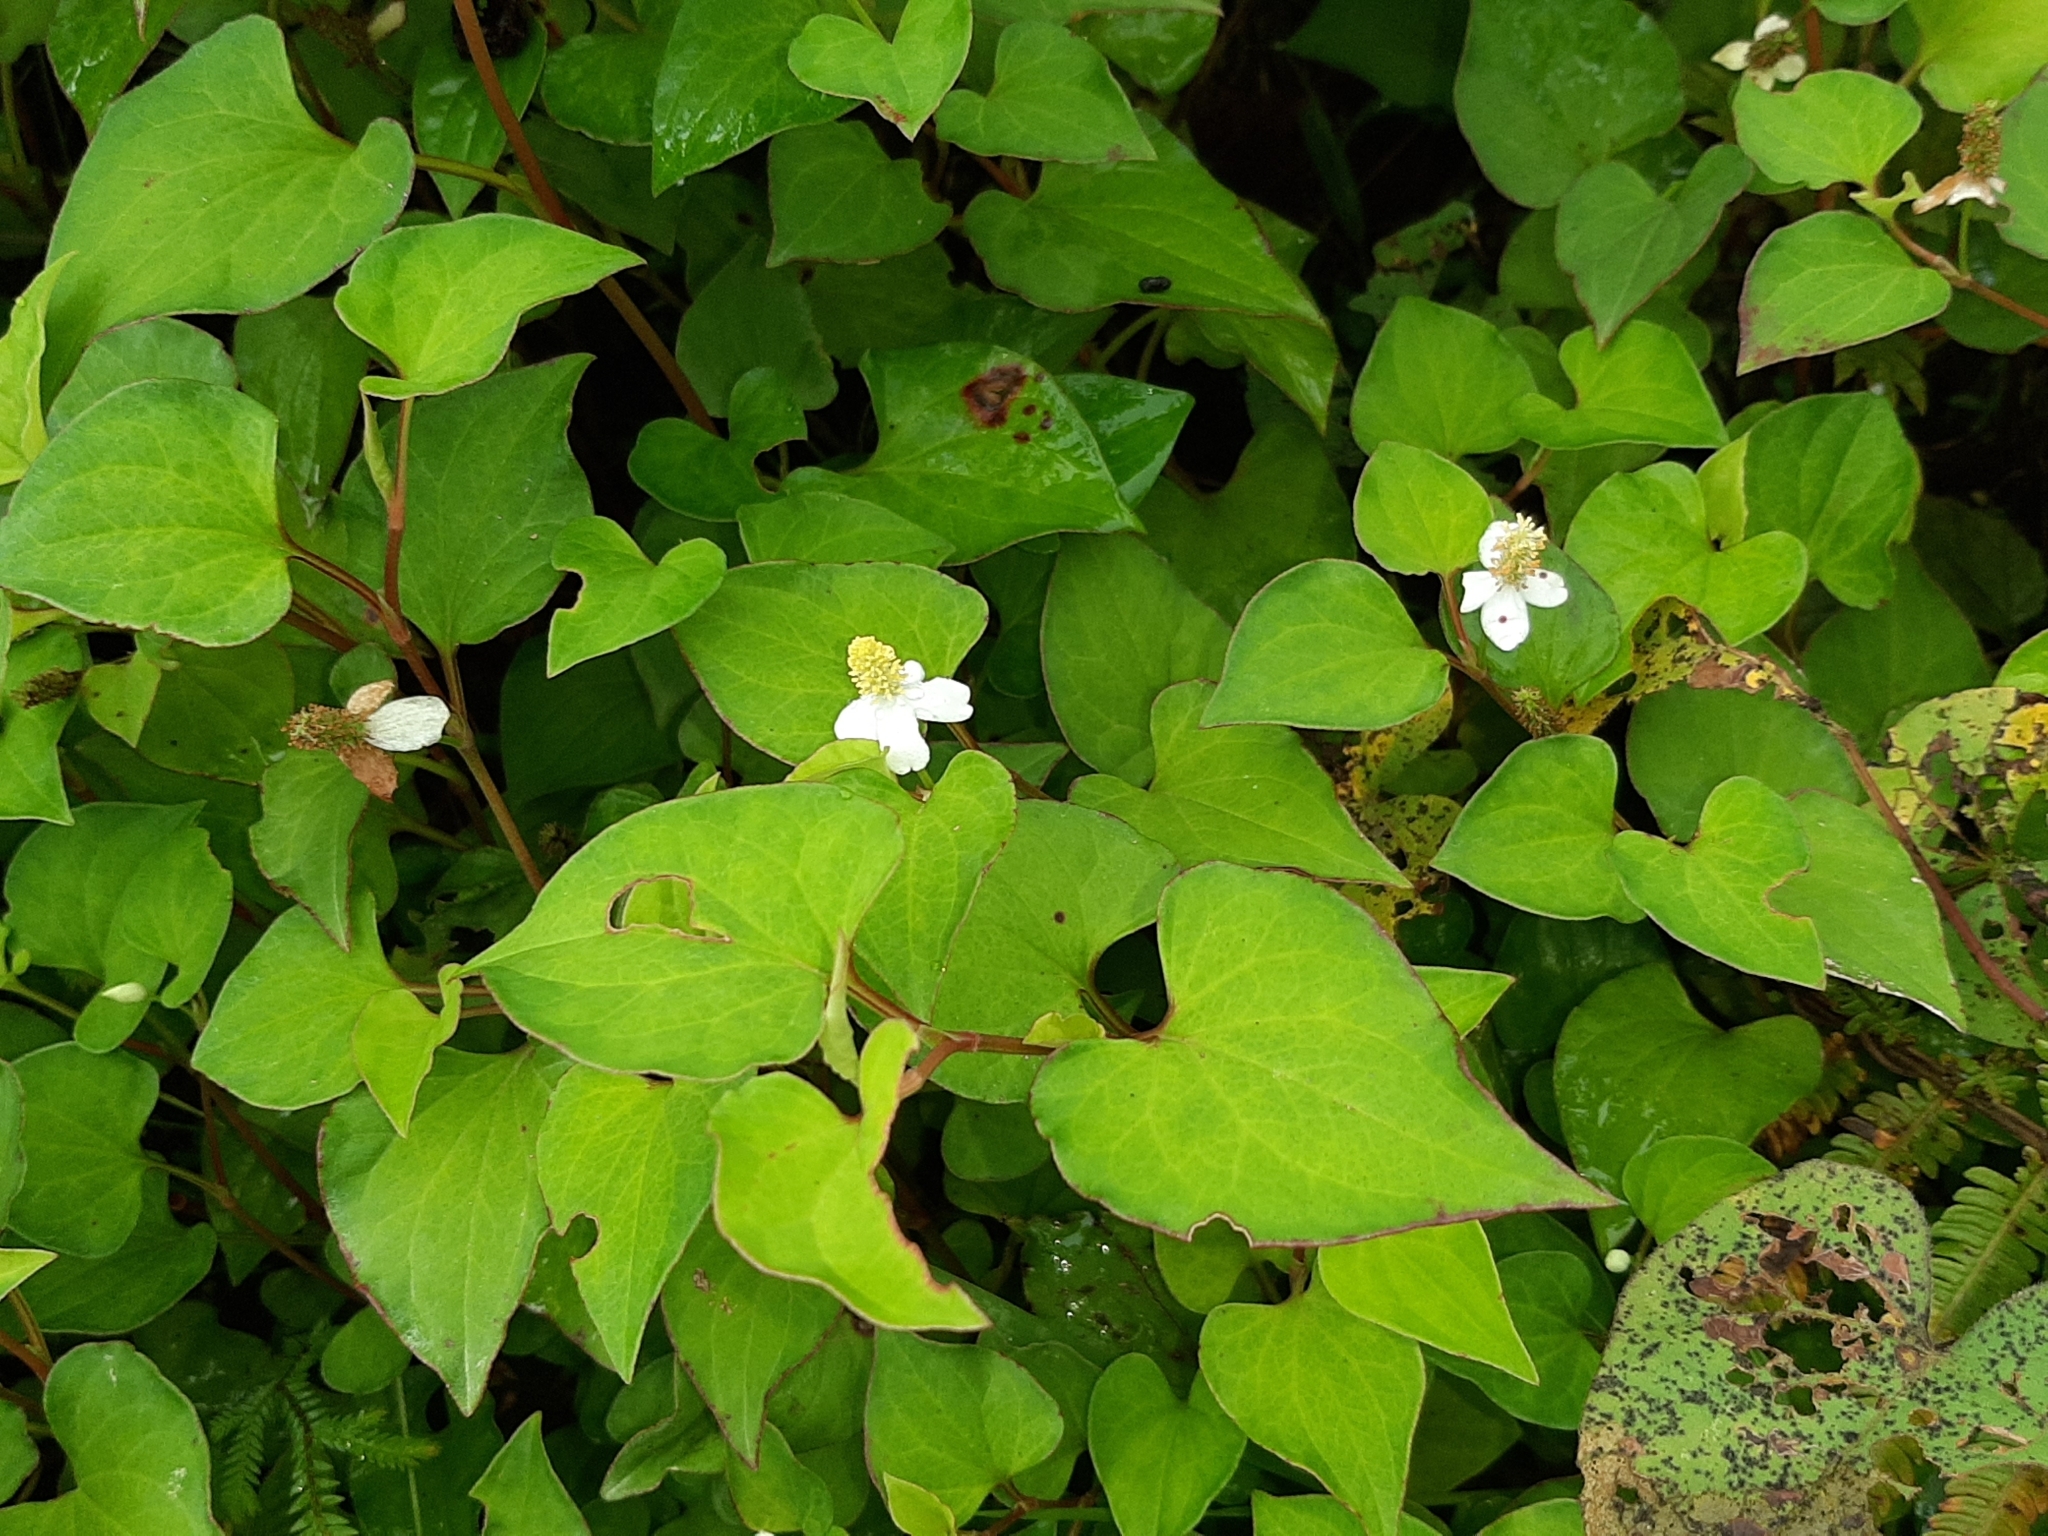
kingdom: Plantae
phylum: Tracheophyta
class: Magnoliopsida
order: Piperales
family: Saururaceae
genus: Houttuynia
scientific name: Houttuynia cordata
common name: Chameleon
